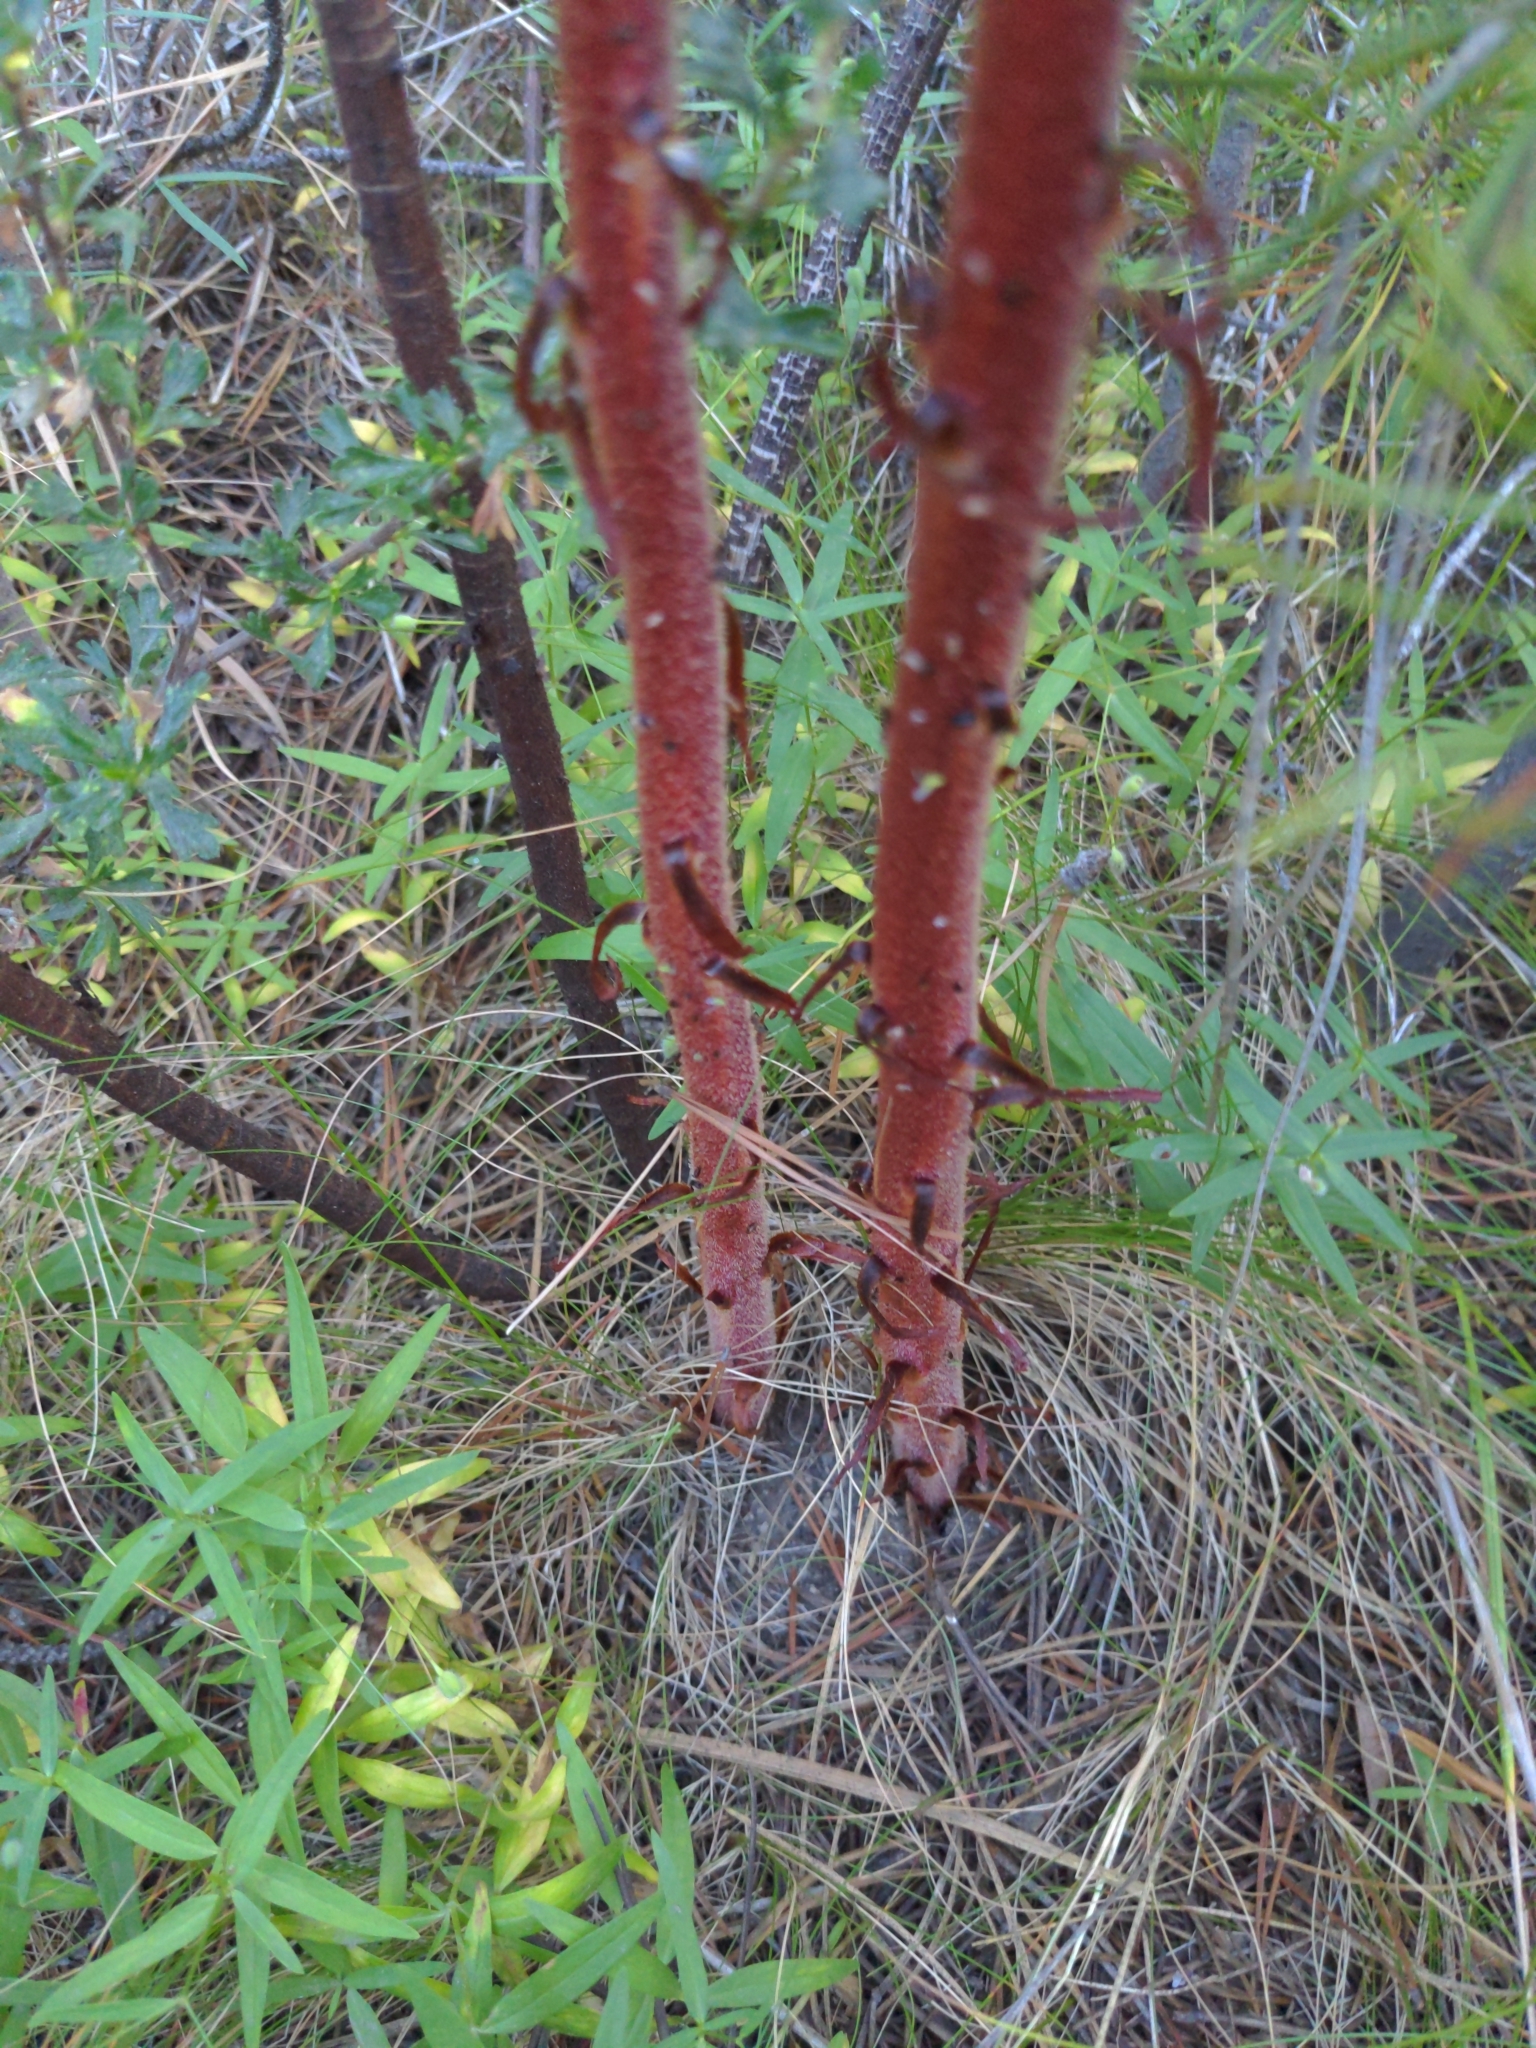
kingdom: Plantae
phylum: Tracheophyta
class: Magnoliopsida
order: Ericales
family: Ericaceae
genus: Pterospora
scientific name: Pterospora andromedea
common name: Giant bird's-nest
